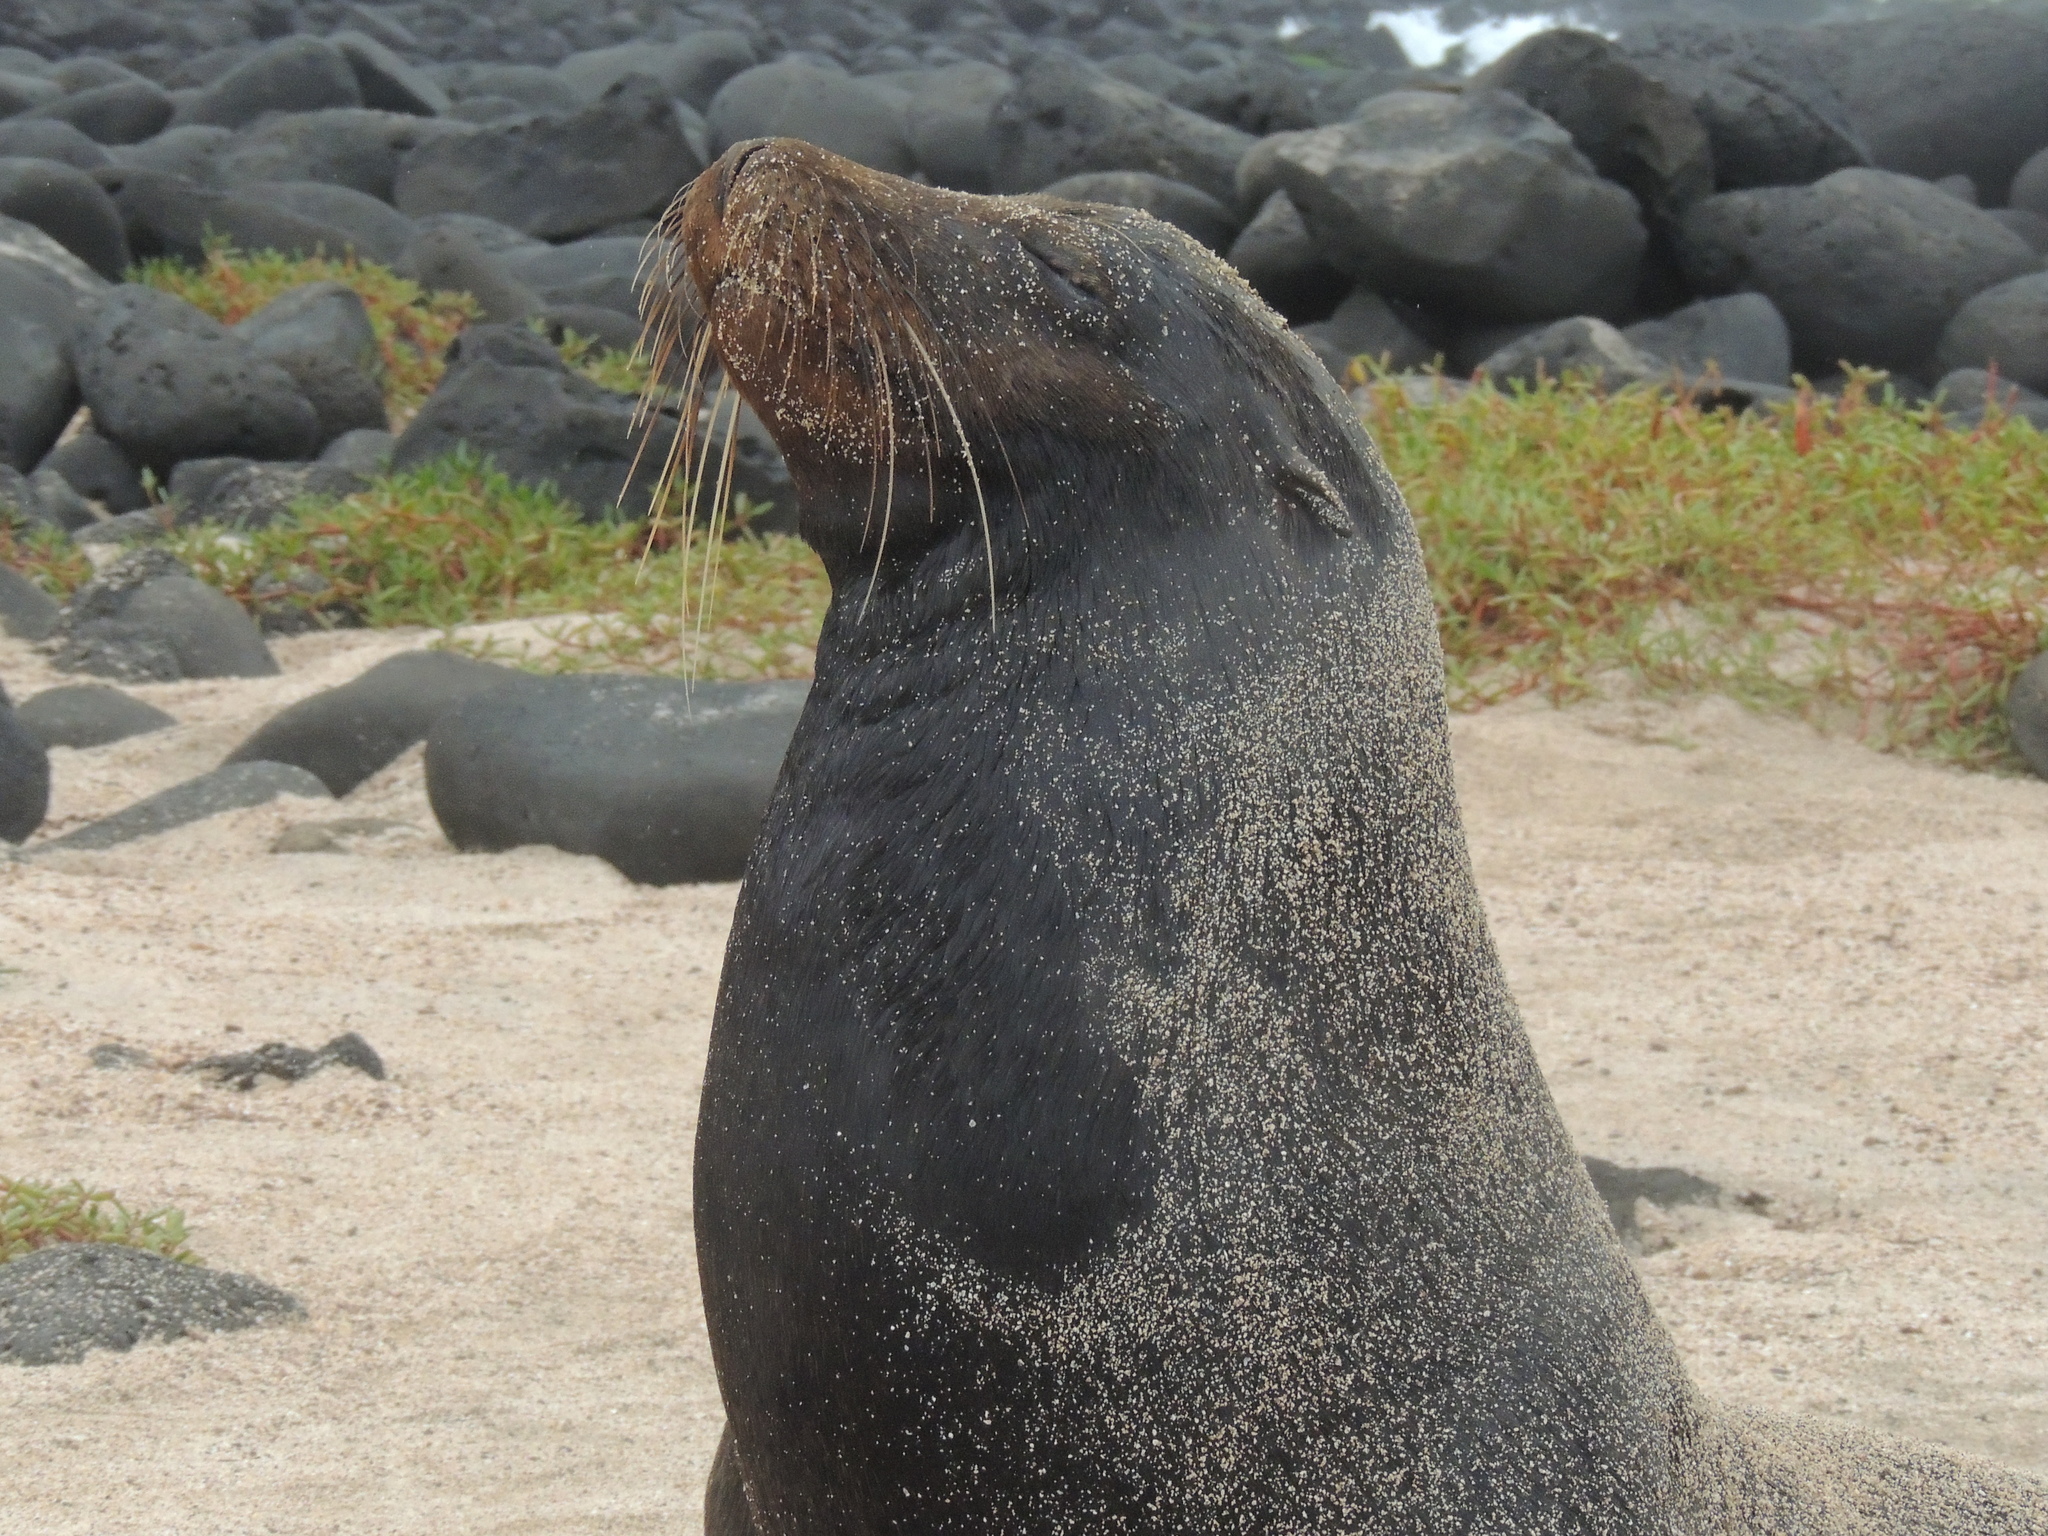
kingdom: Animalia
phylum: Chordata
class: Mammalia
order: Carnivora
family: Otariidae
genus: Zalophus
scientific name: Zalophus wollebaeki
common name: Galapagos sea lion
